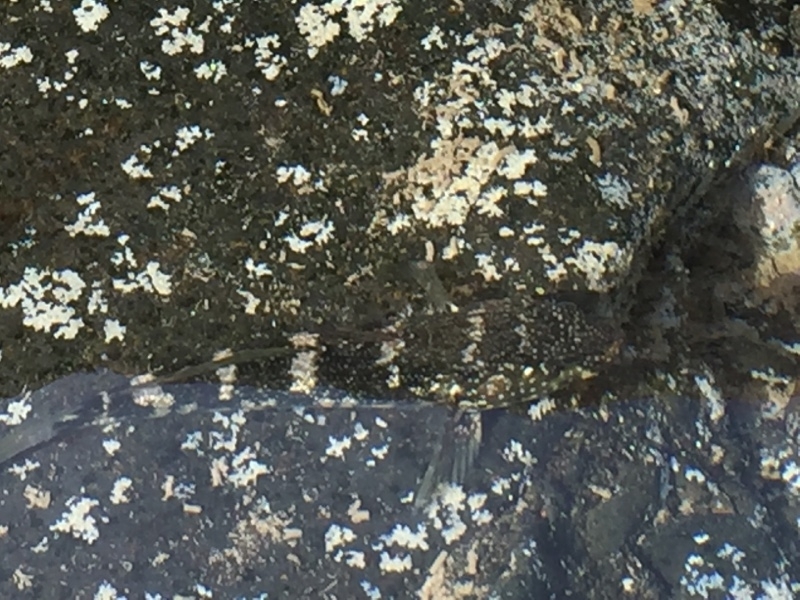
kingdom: Animalia
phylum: Chordata
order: Perciformes
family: Gobiidae
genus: Mauligobius
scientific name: Mauligobius maderensis
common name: Rock goby
